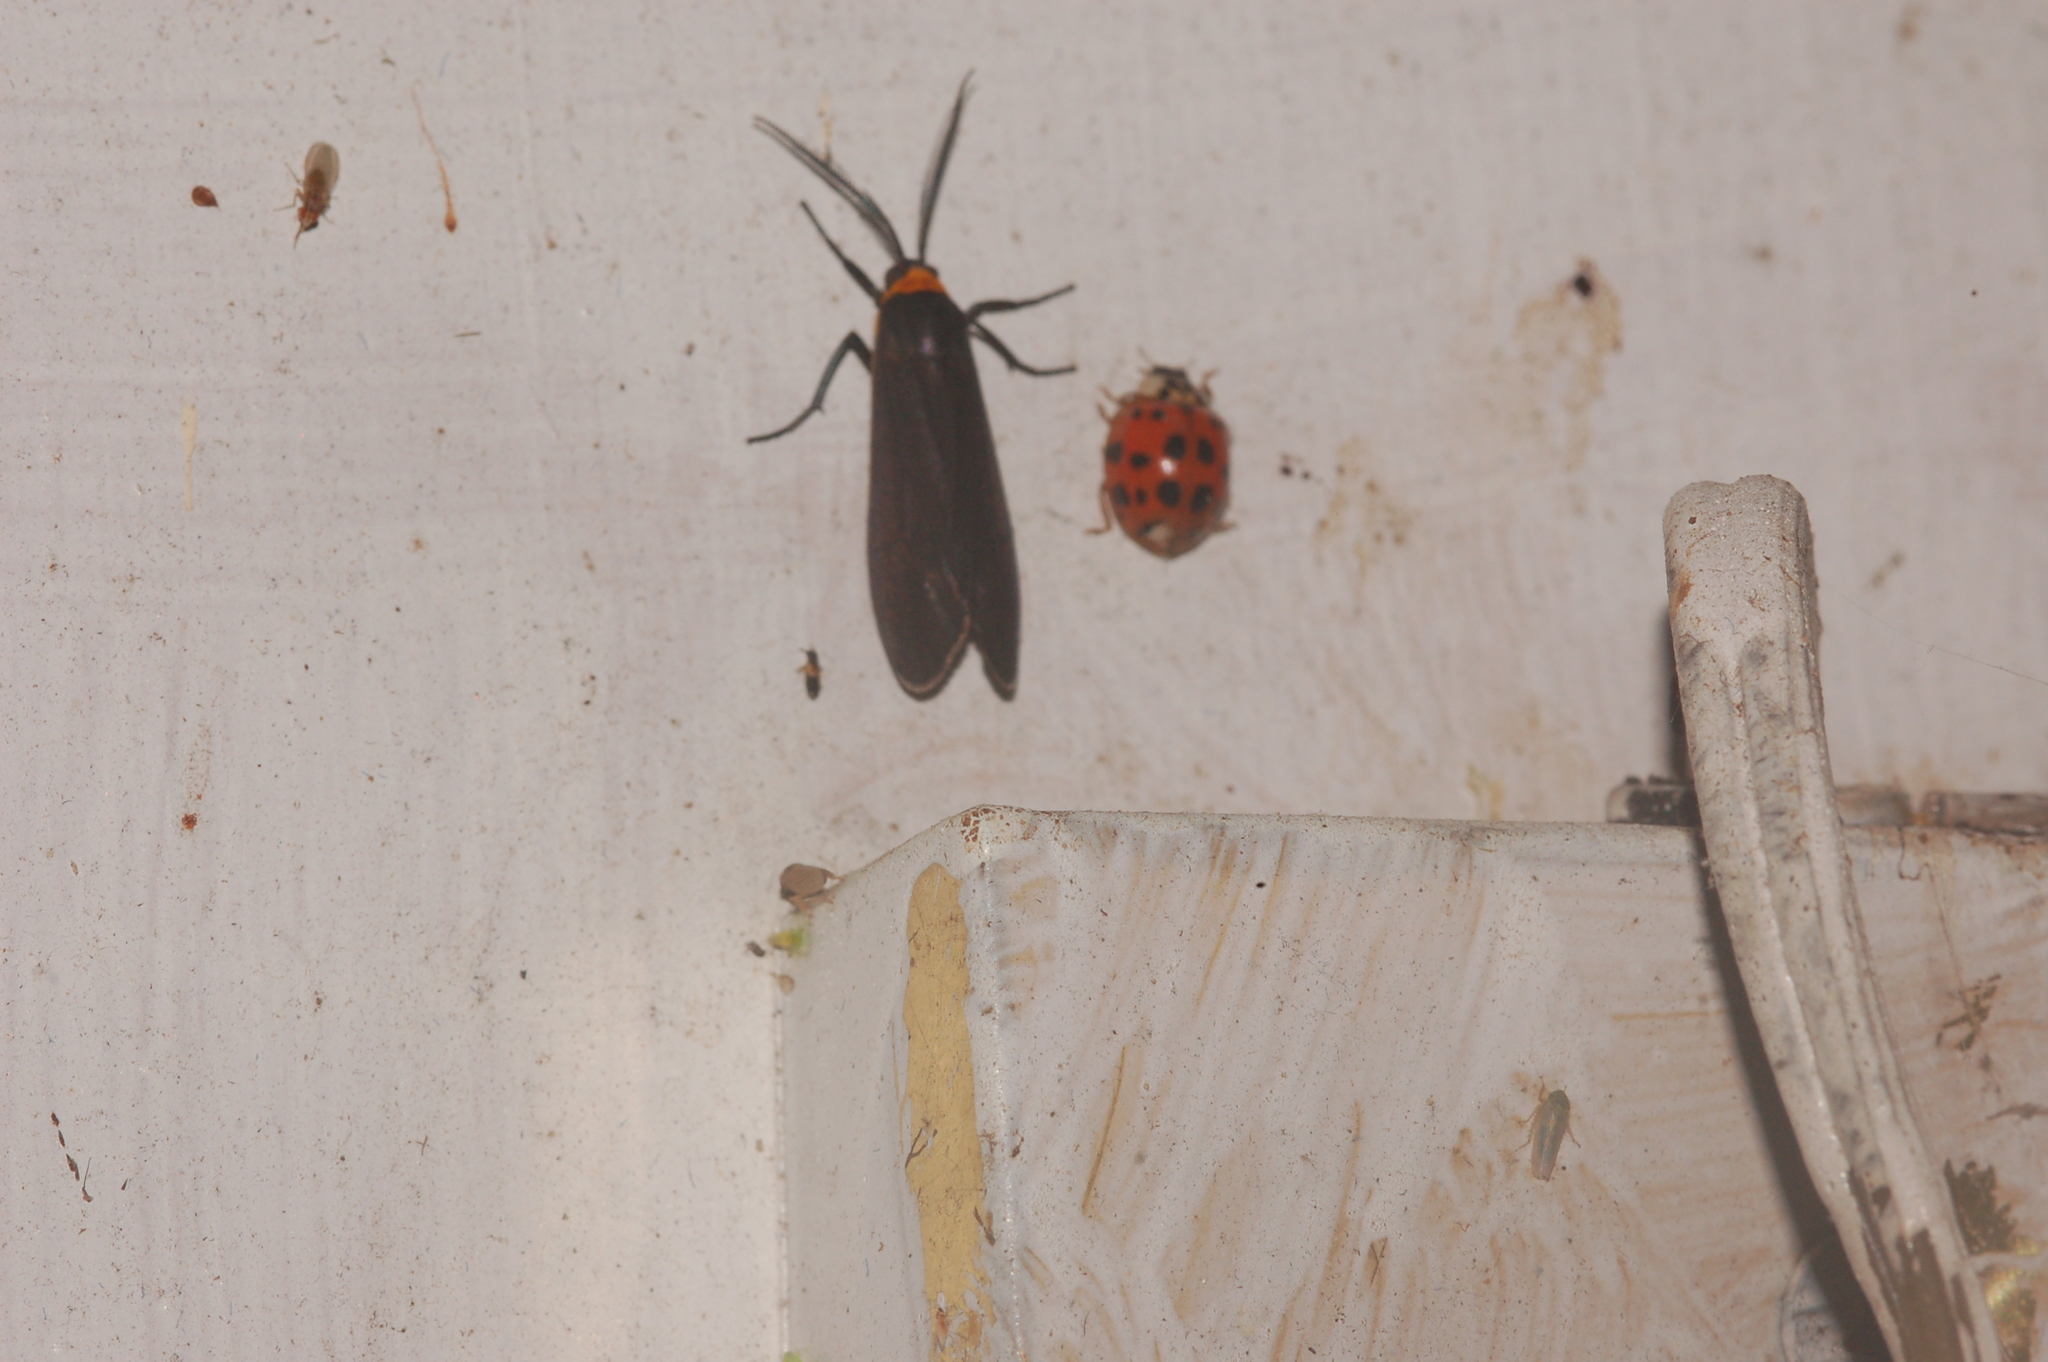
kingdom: Animalia
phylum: Arthropoda
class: Insecta
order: Lepidoptera
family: Erebidae
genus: Cisseps
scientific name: Cisseps fulvicollis
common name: Yellow-collared scape moth
